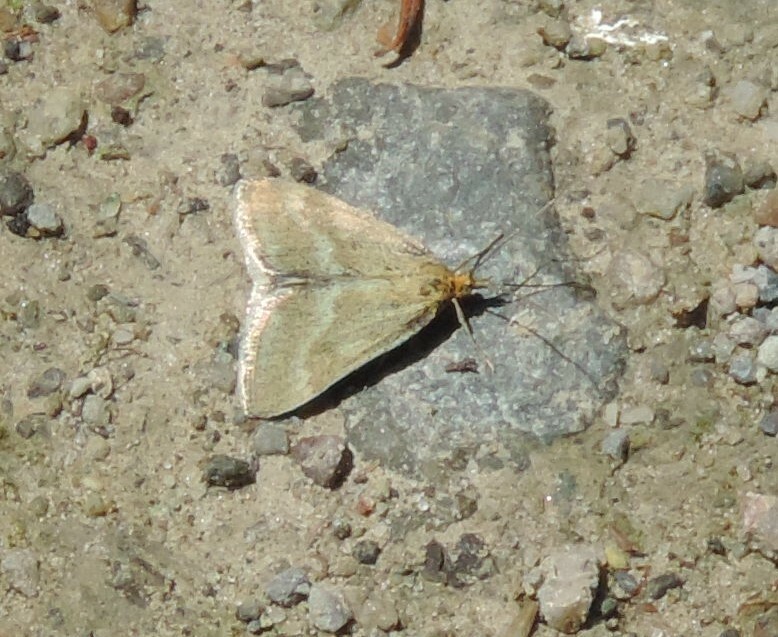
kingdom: Animalia
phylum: Arthropoda
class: Insecta
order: Lepidoptera
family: Crambidae
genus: Pyrausta
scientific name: Pyrausta unifascialis
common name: One-banded pyrausta
